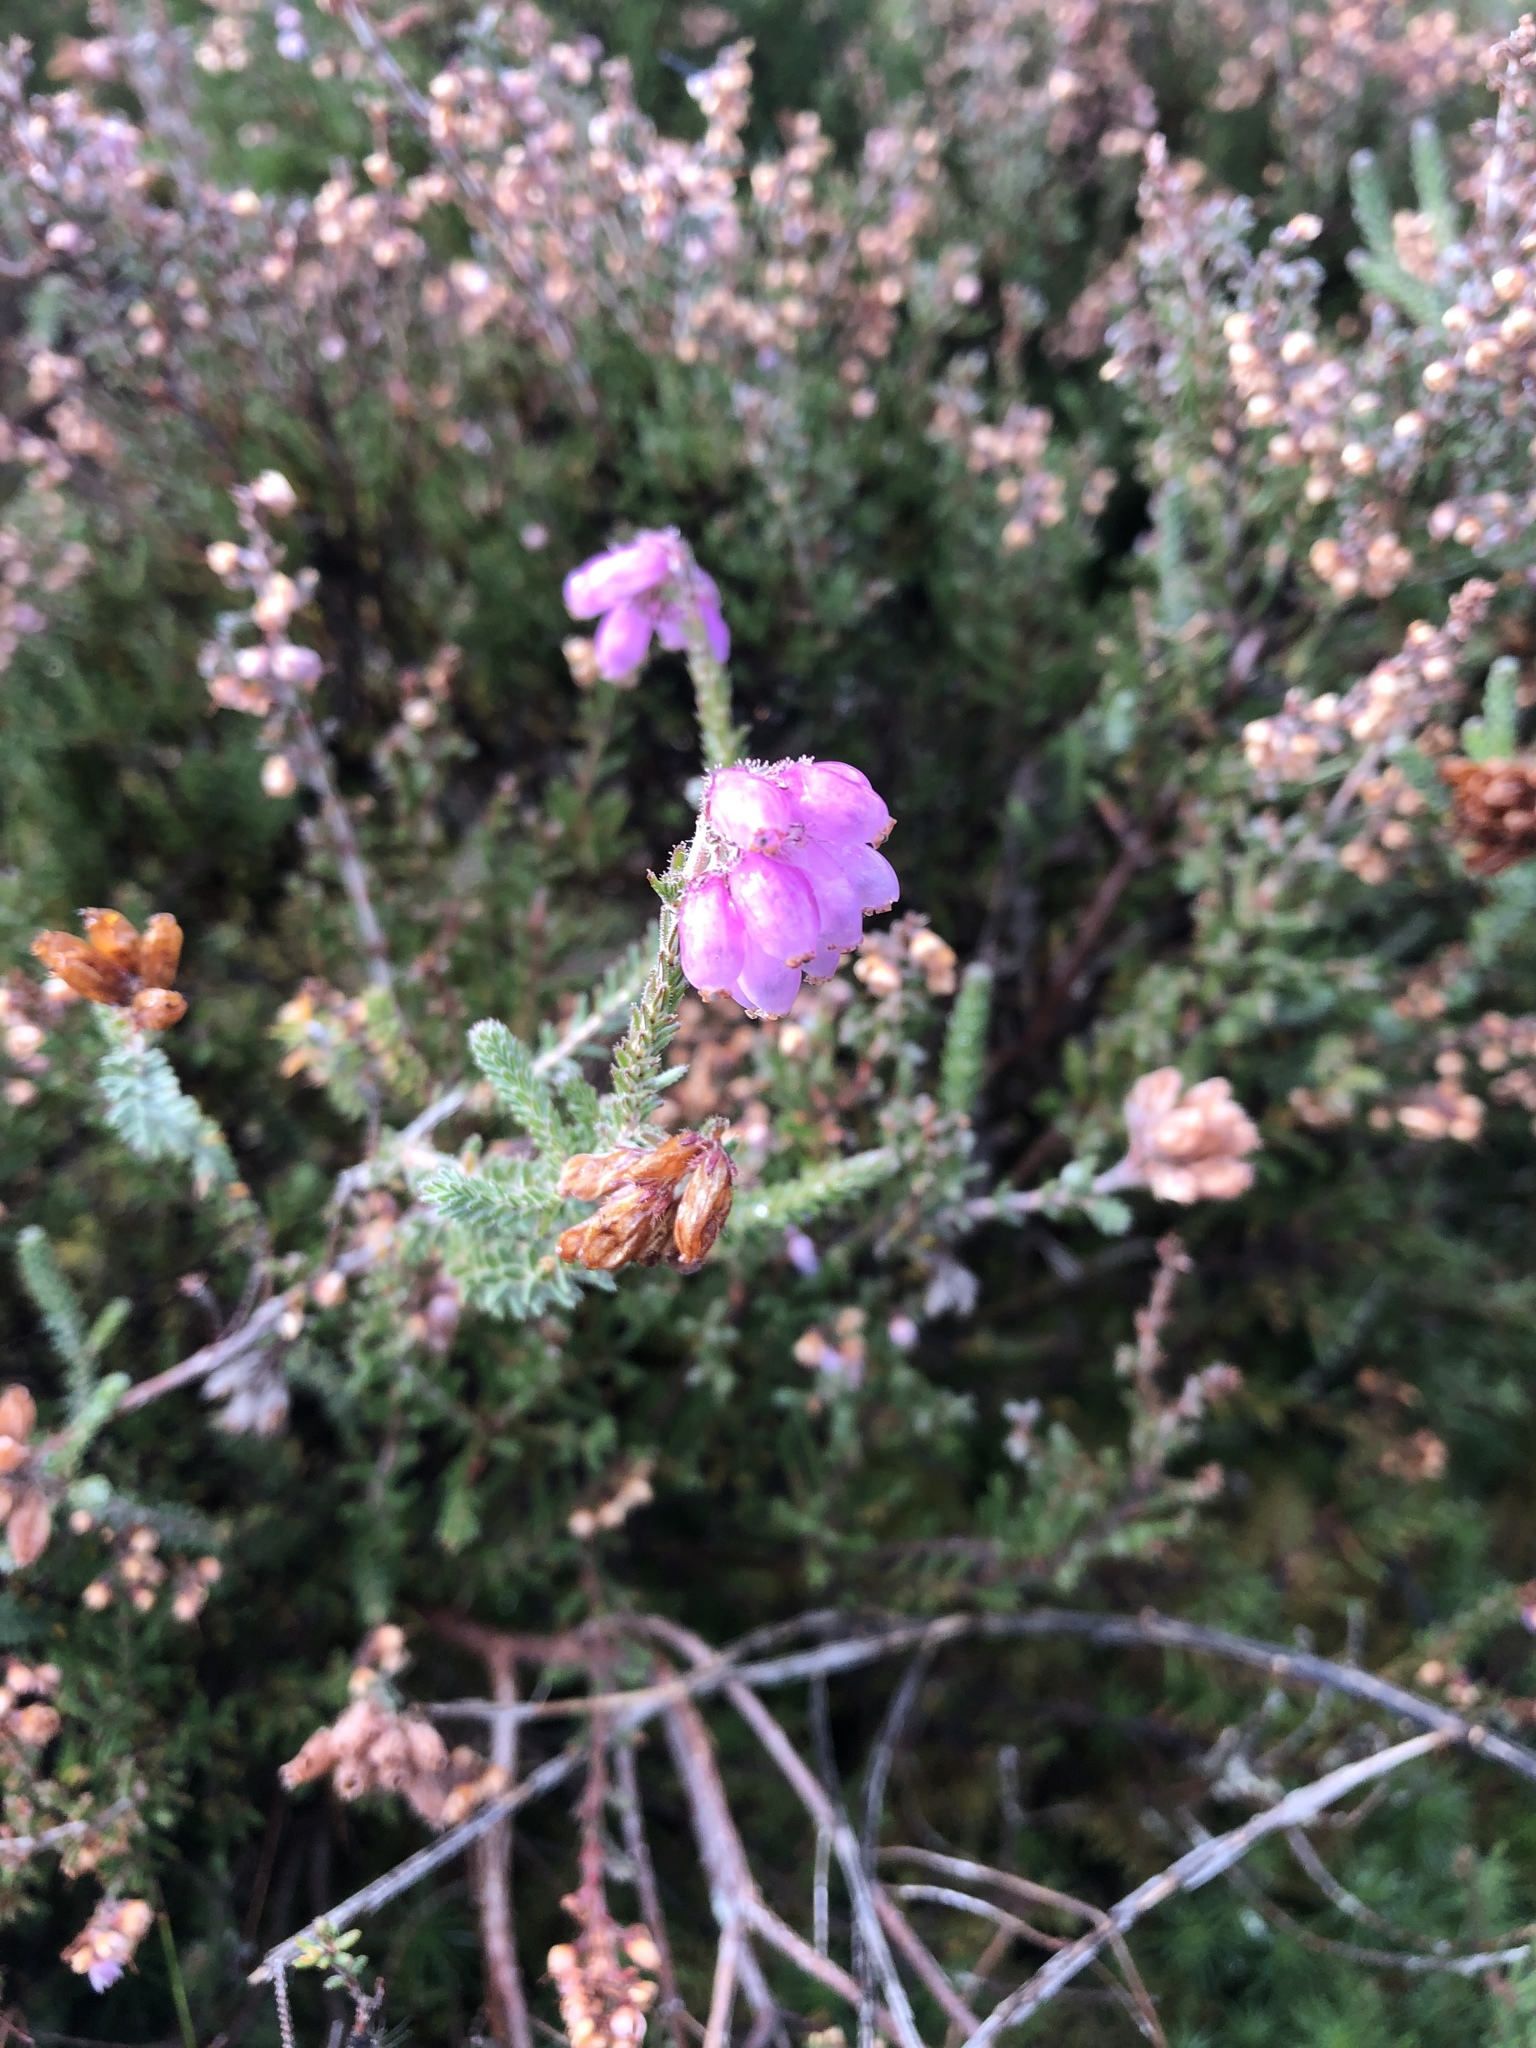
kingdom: Plantae
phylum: Tracheophyta
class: Magnoliopsida
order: Ericales
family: Ericaceae
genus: Erica
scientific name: Erica tetralix
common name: Cross-leaved heath
